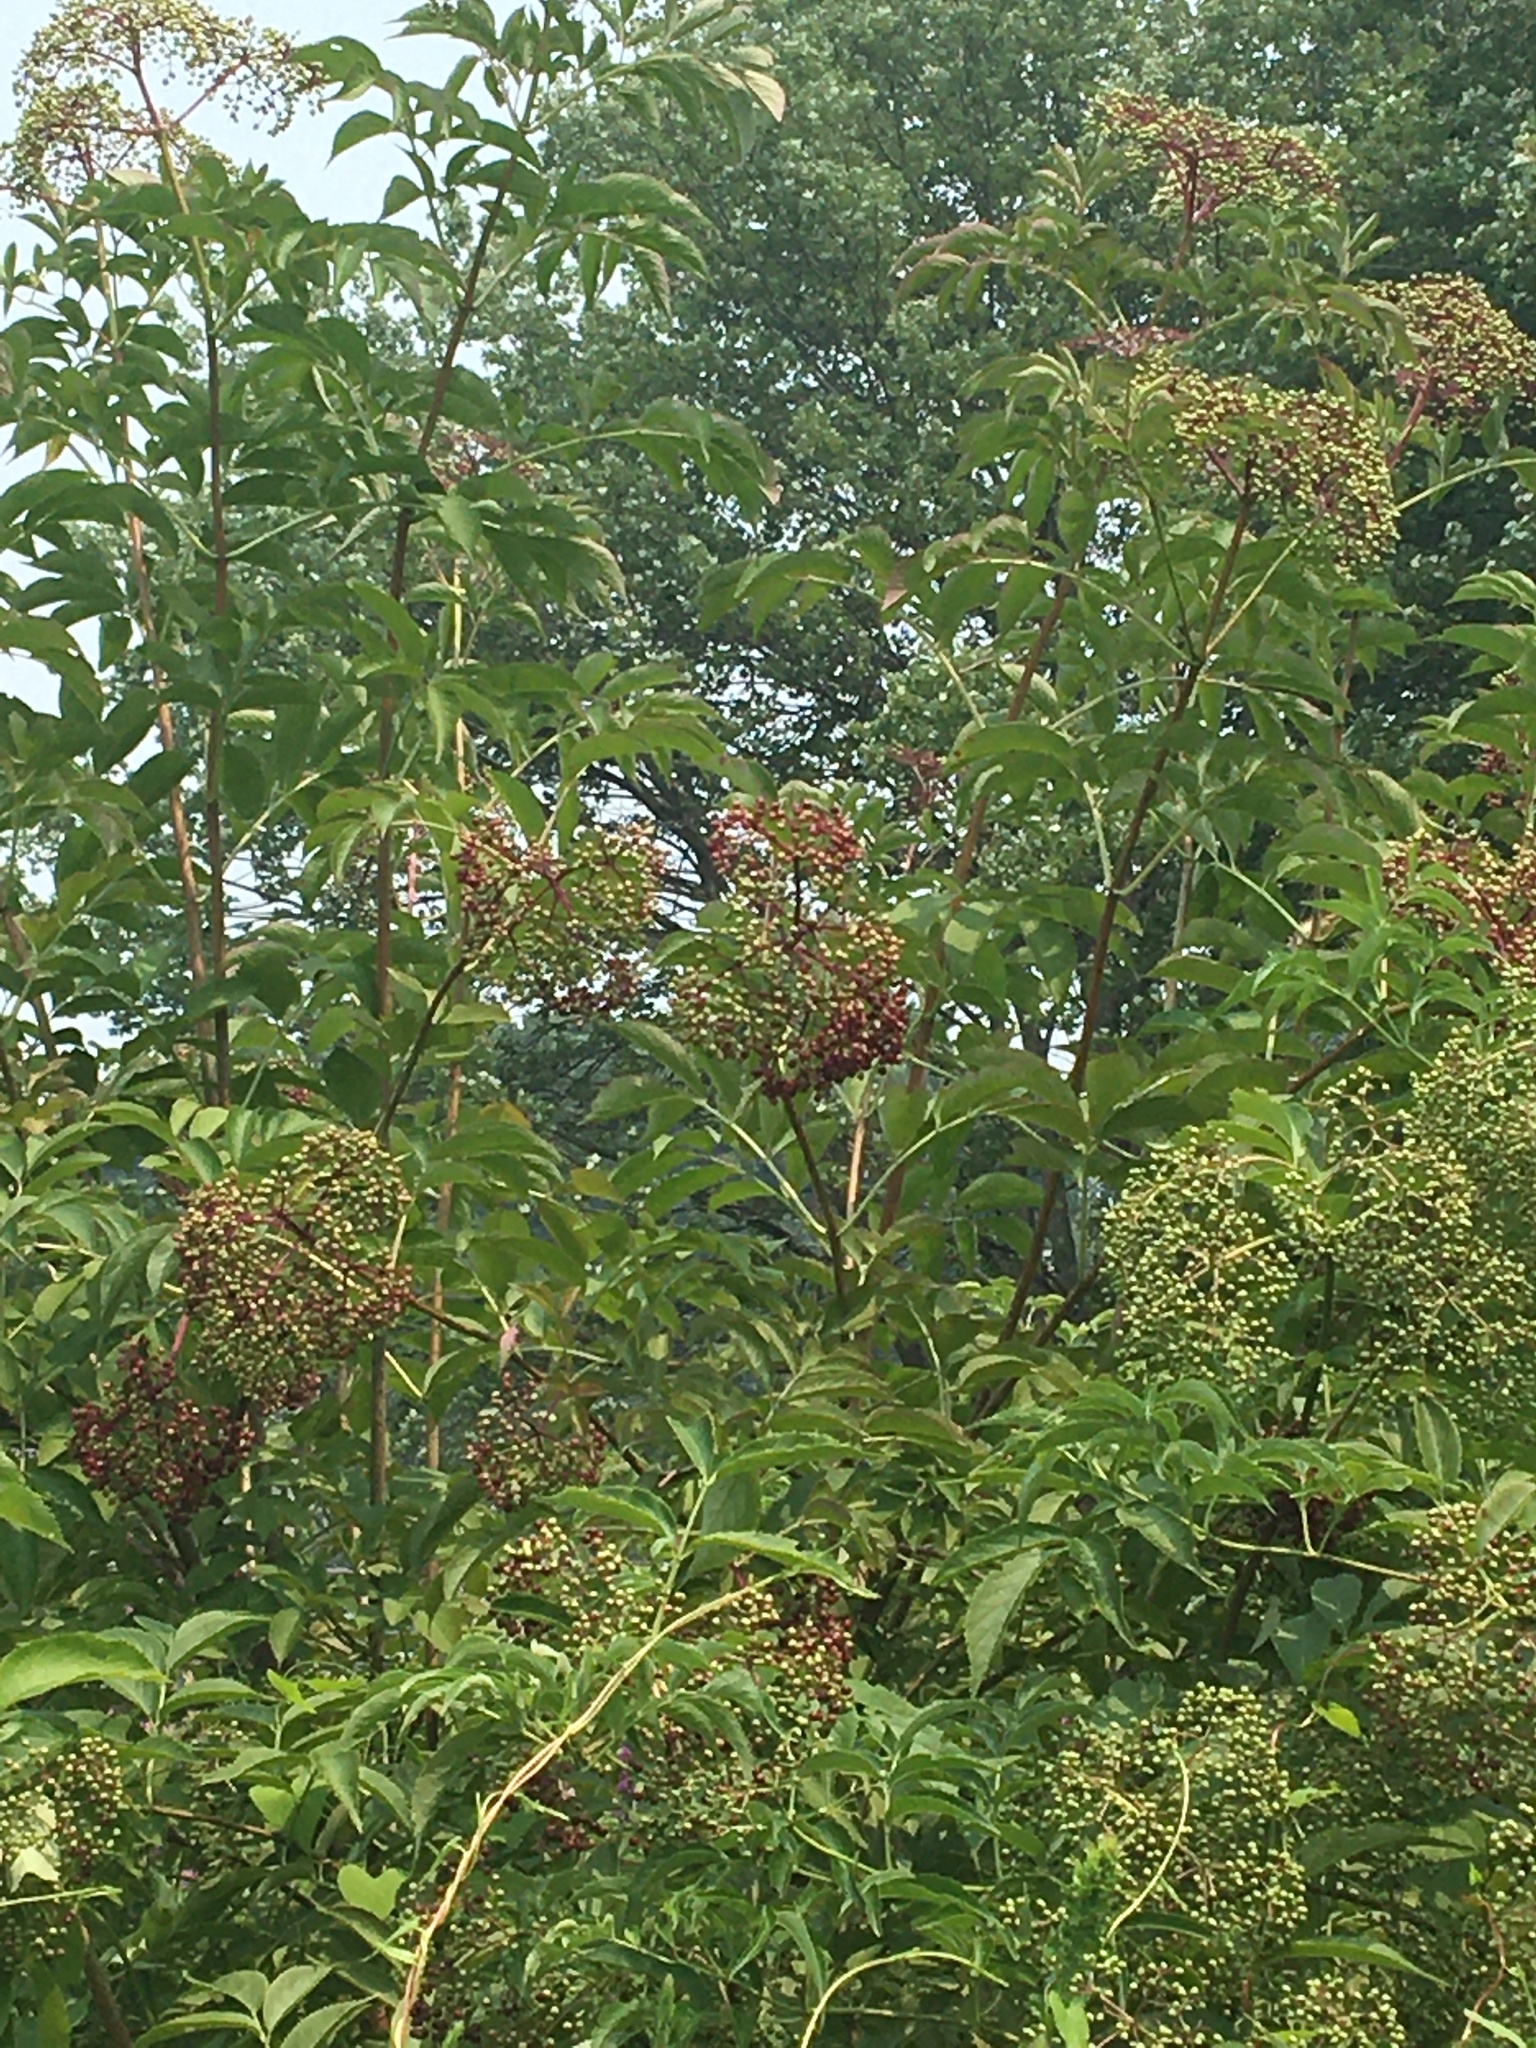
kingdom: Plantae
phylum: Tracheophyta
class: Magnoliopsida
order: Dipsacales
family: Viburnaceae
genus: Sambucus
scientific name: Sambucus canadensis
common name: American elder
